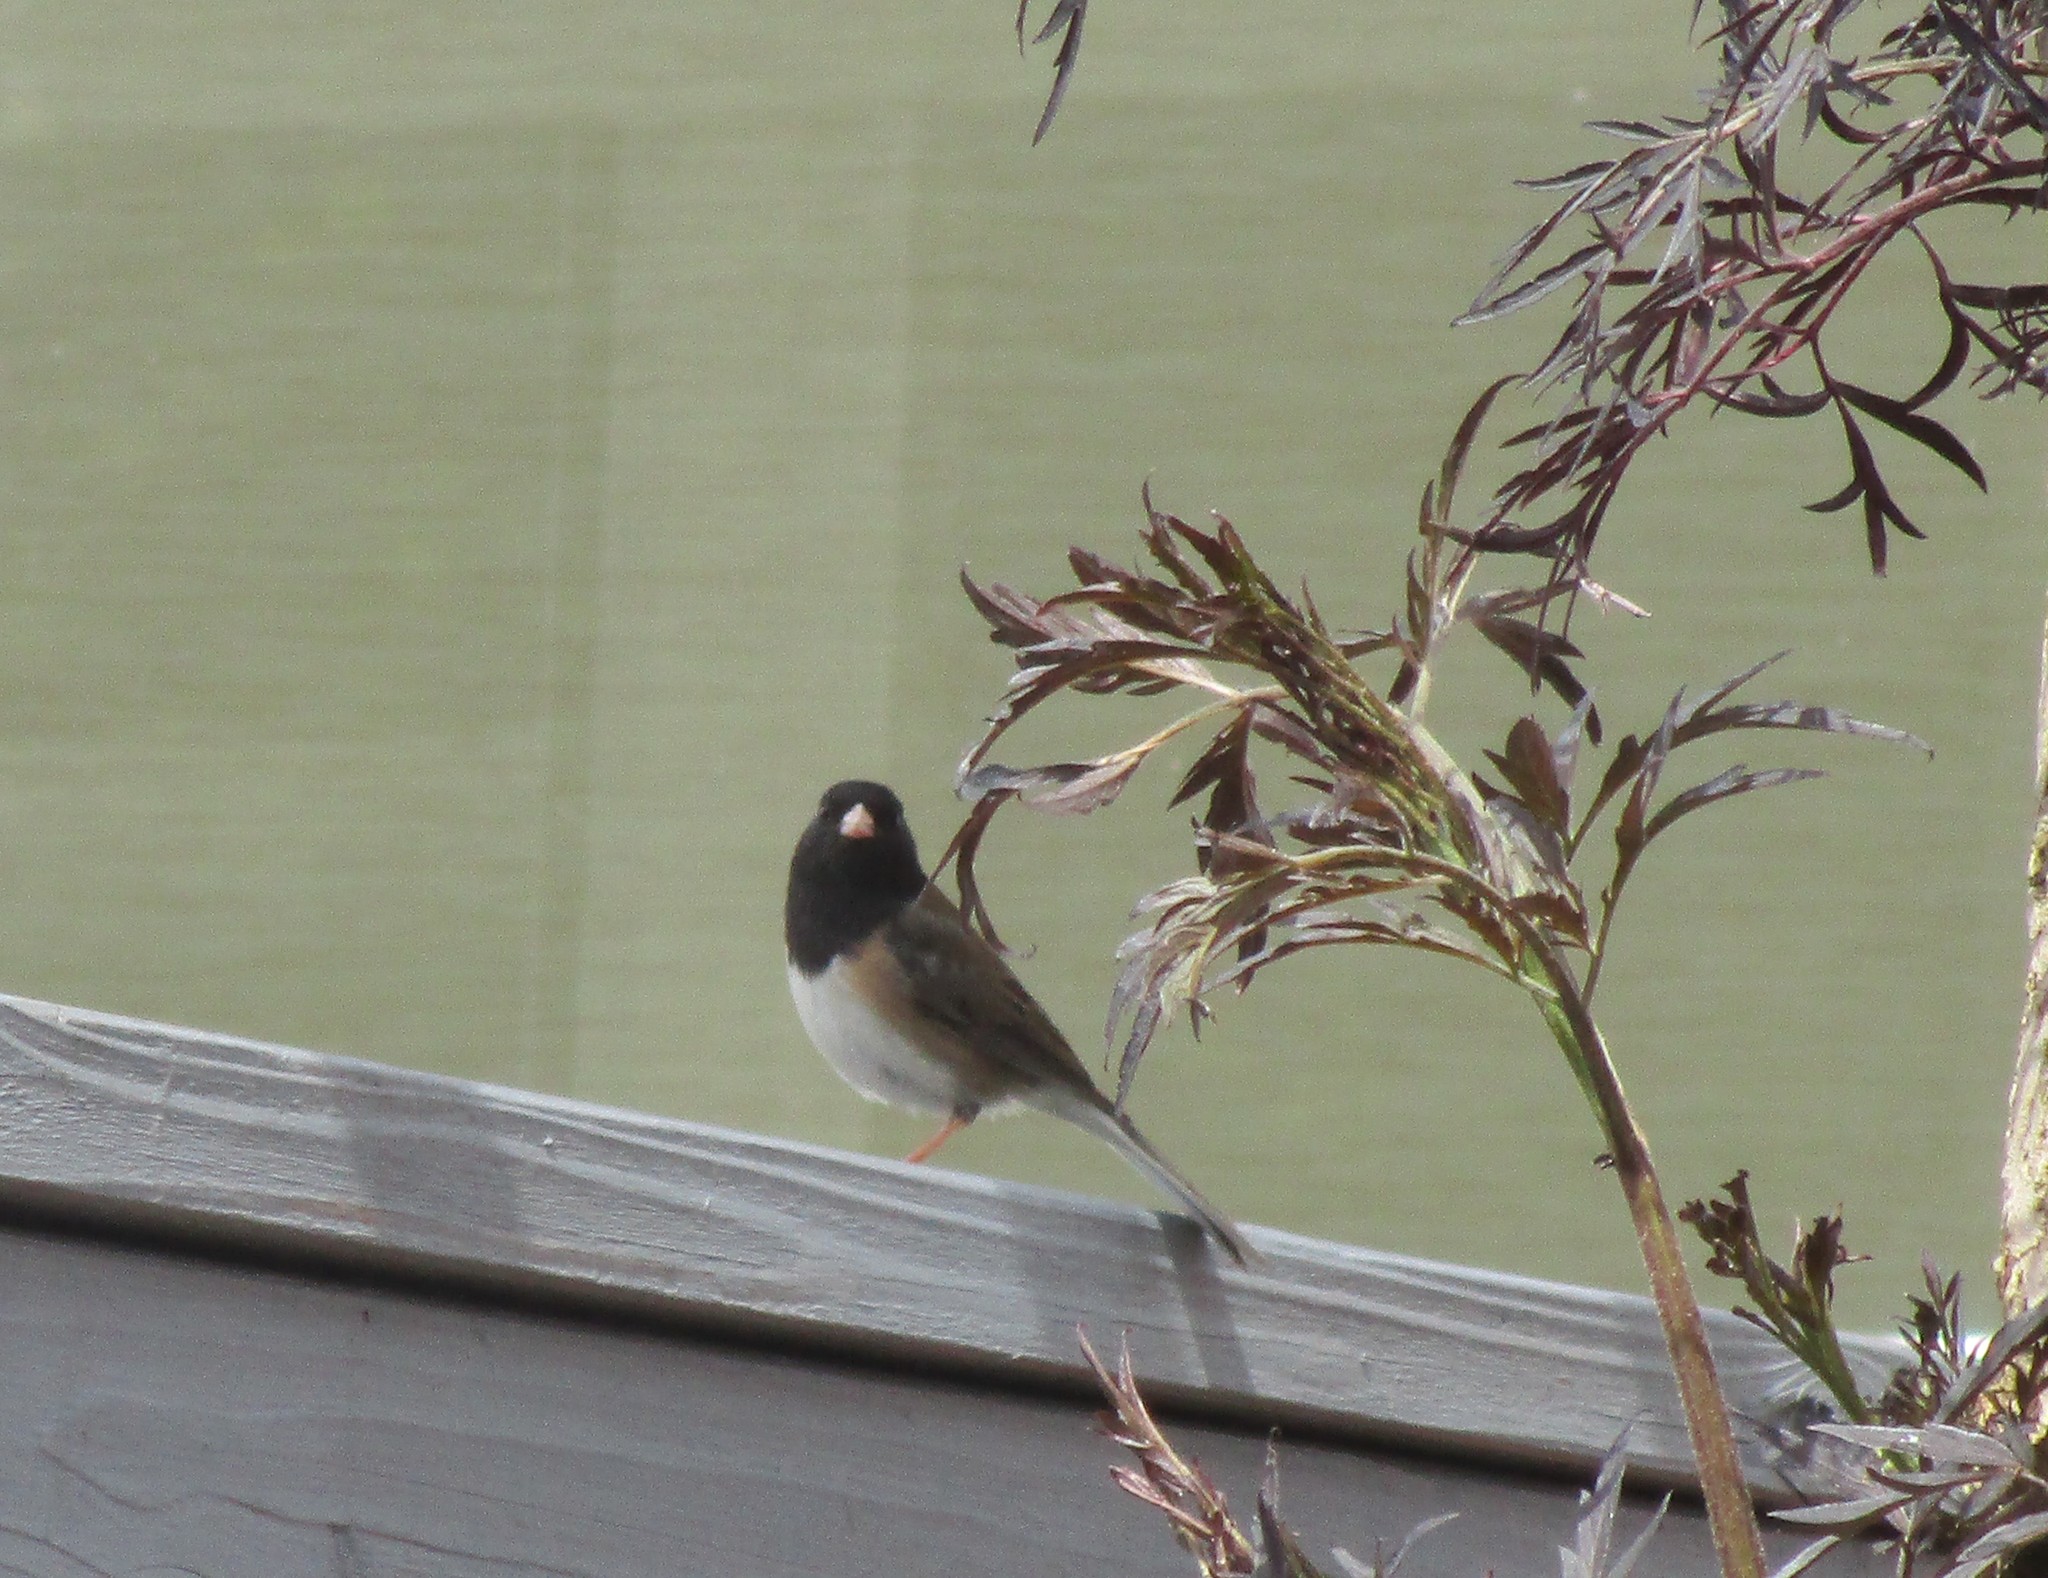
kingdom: Animalia
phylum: Chordata
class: Aves
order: Passeriformes
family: Passerellidae
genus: Junco
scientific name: Junco hyemalis
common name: Dark-eyed junco
